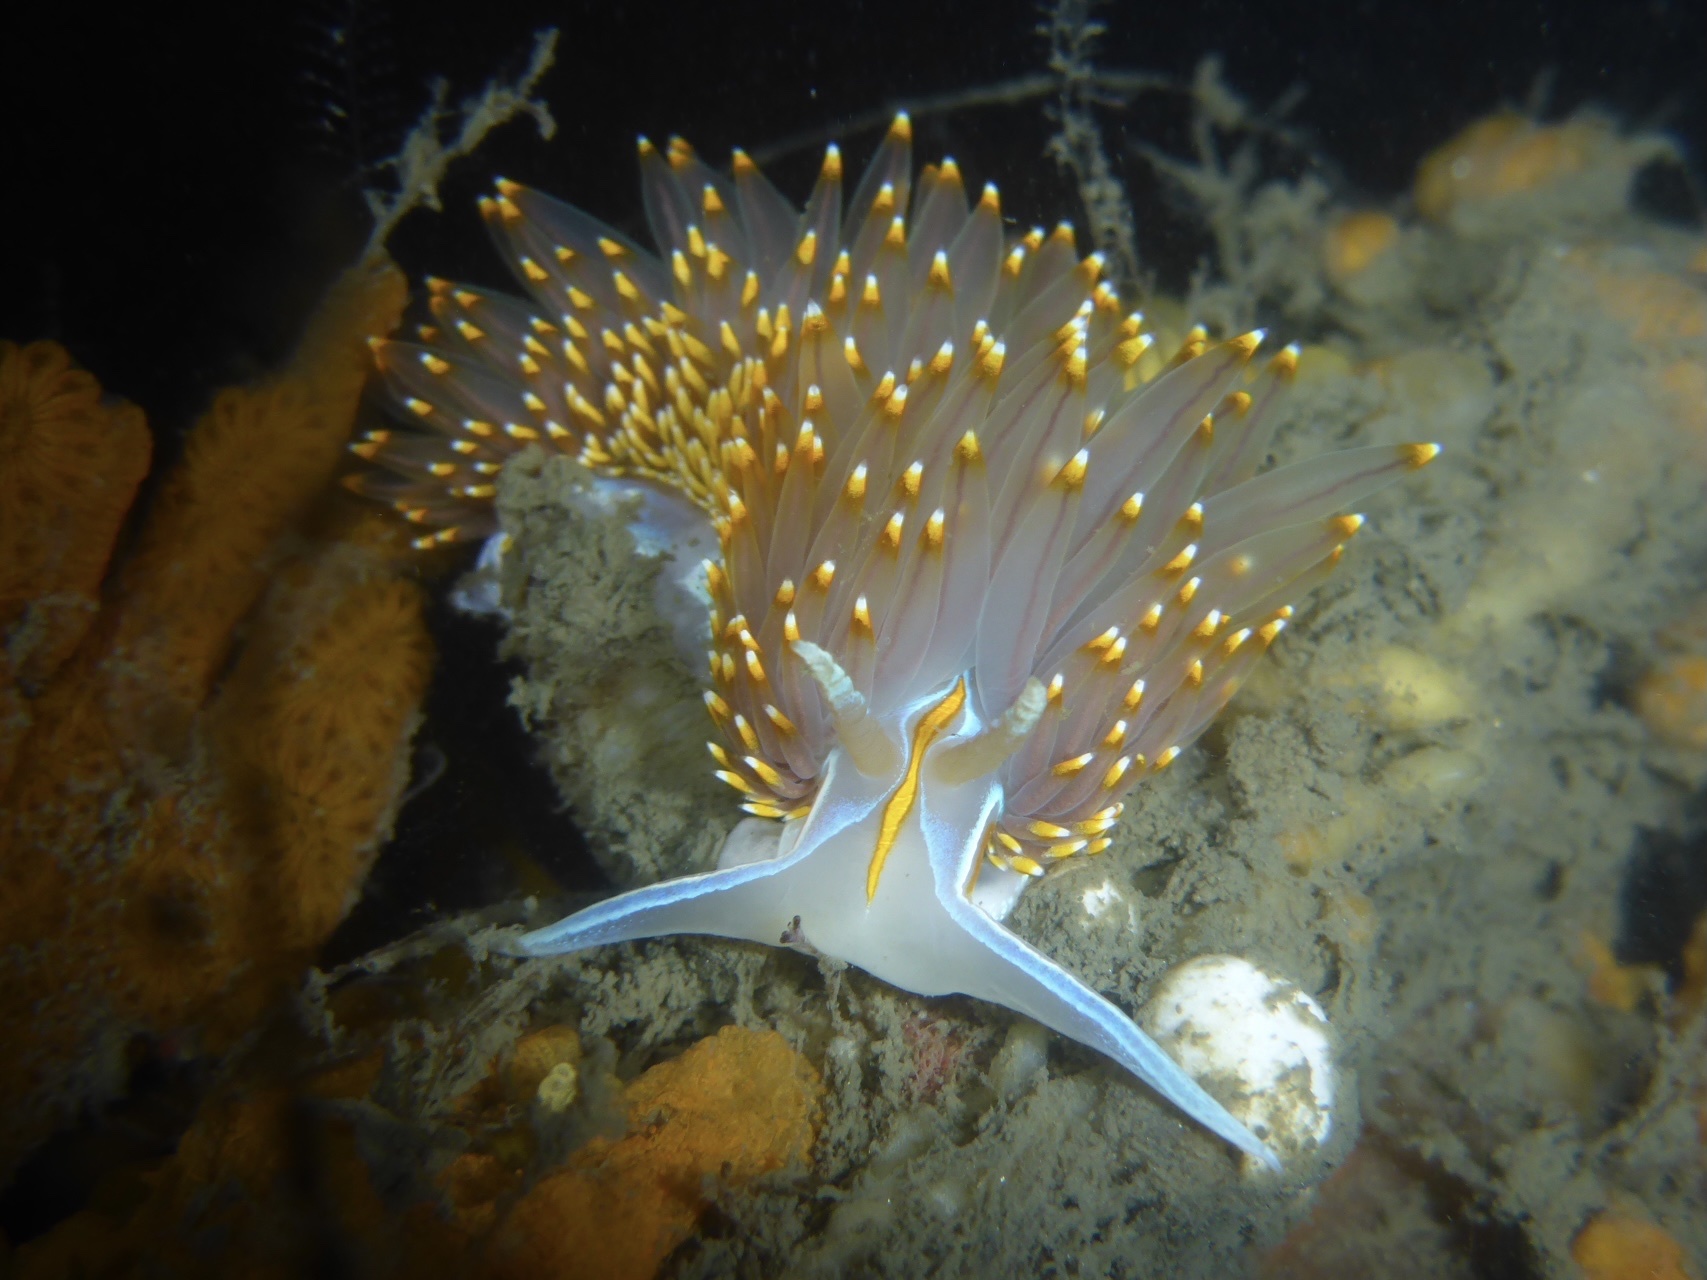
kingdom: Animalia
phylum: Mollusca
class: Gastropoda
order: Nudibranchia
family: Myrrhinidae
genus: Hermissenda
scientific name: Hermissenda opalescens
